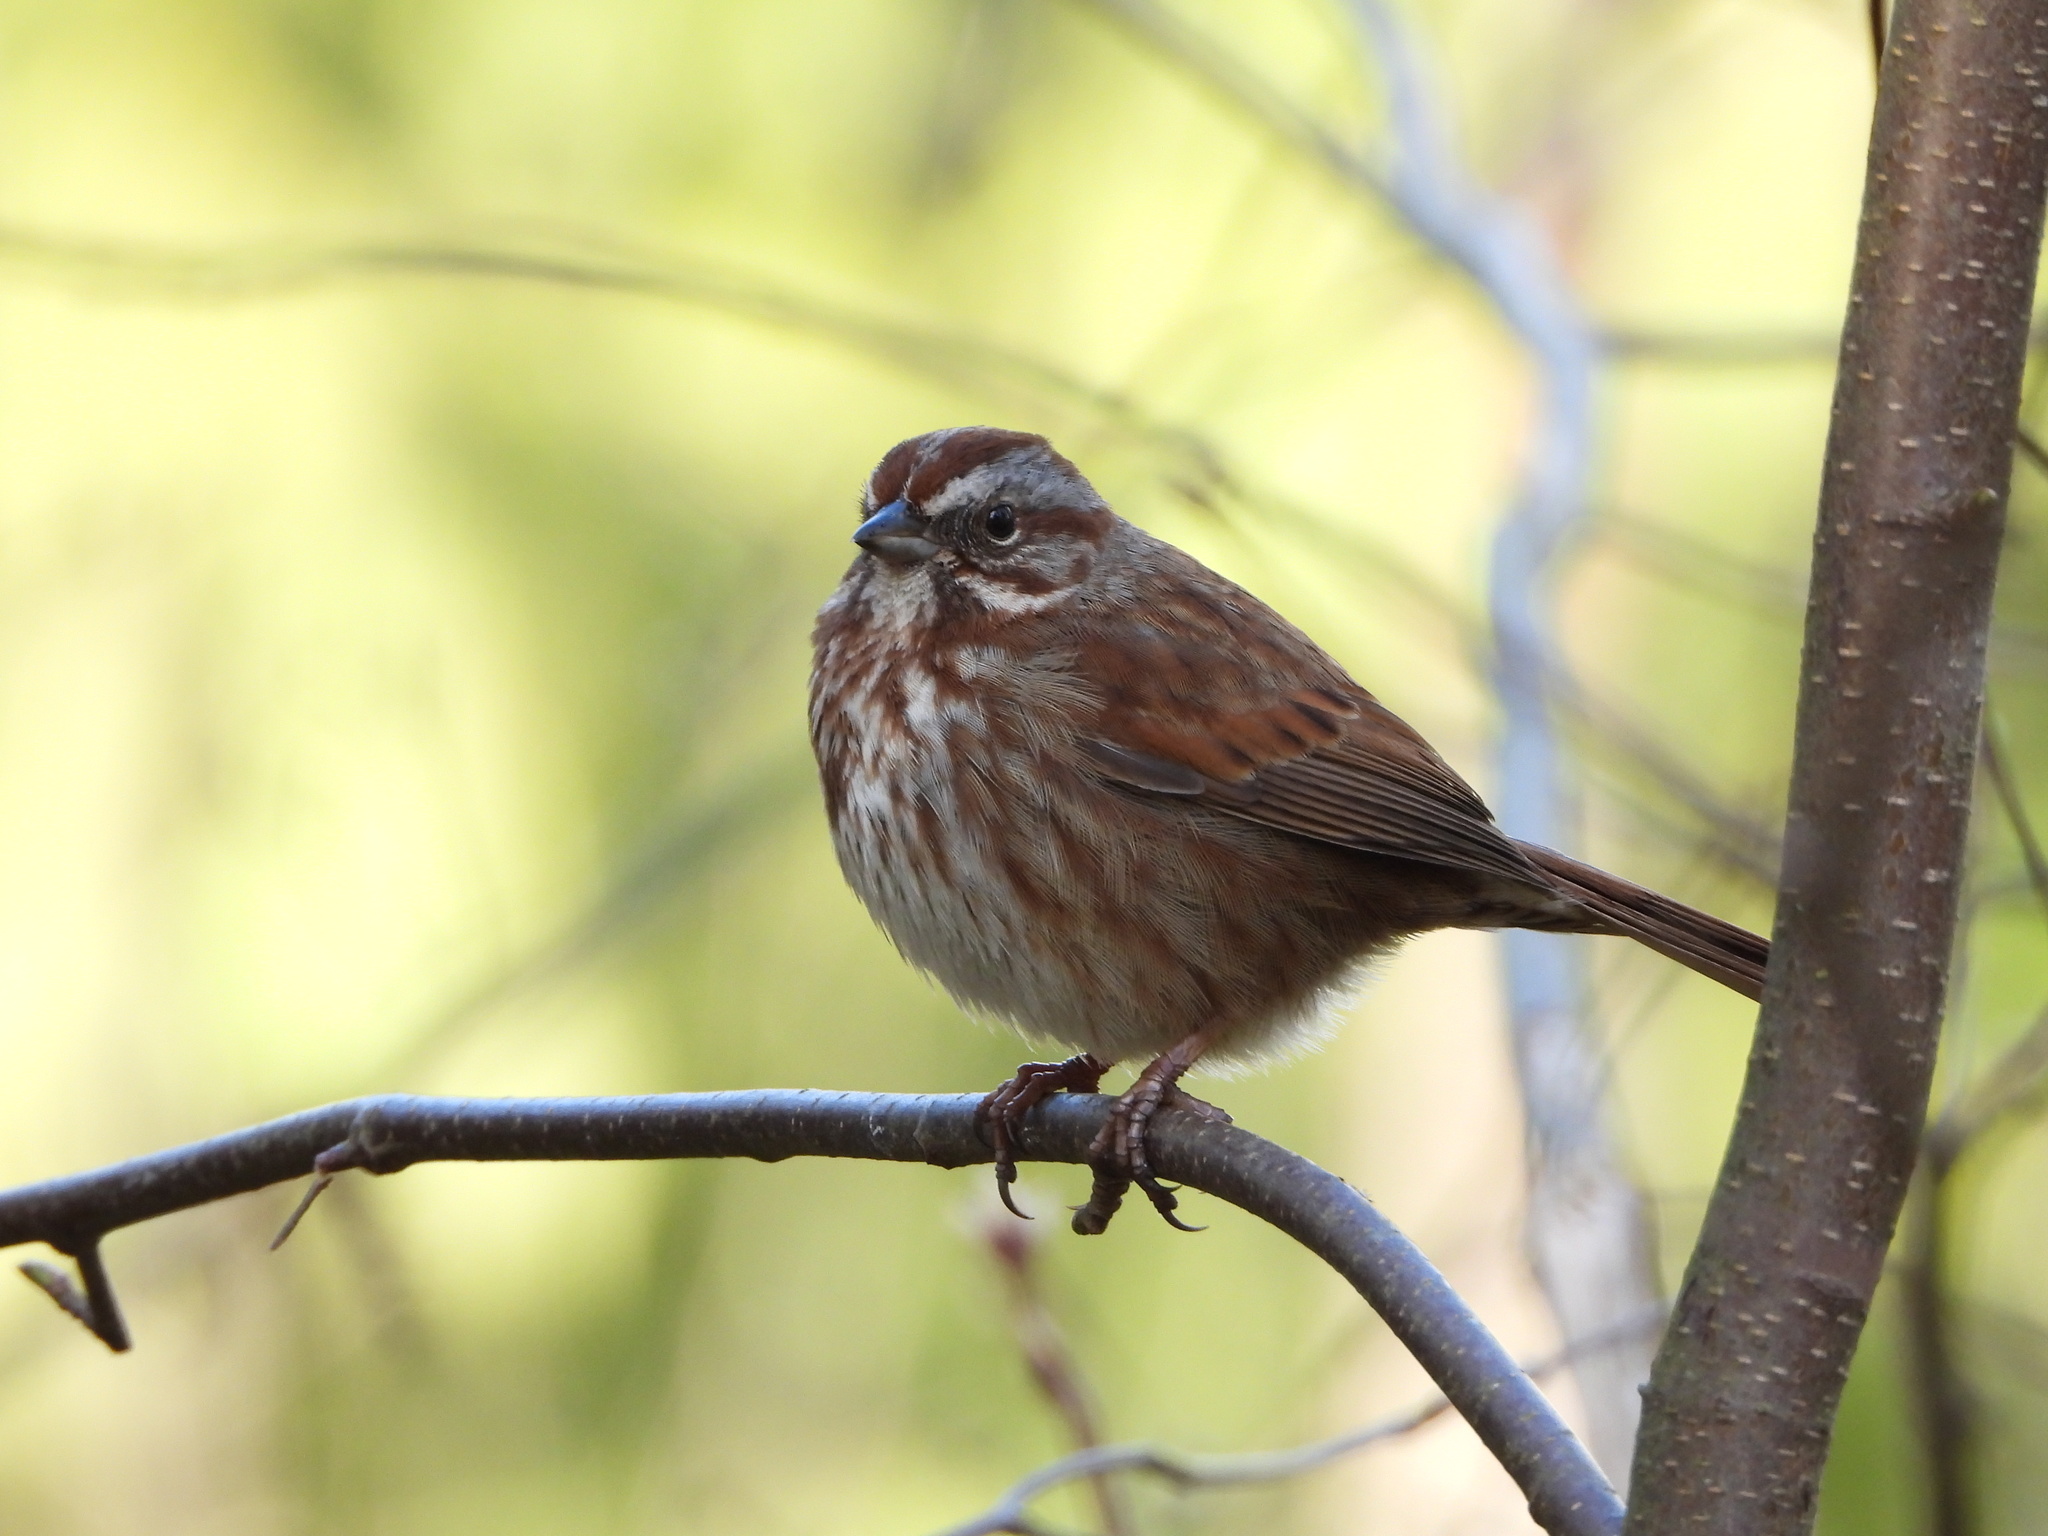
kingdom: Animalia
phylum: Chordata
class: Aves
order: Passeriformes
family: Passerellidae
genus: Melospiza
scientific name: Melospiza melodia
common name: Song sparrow
